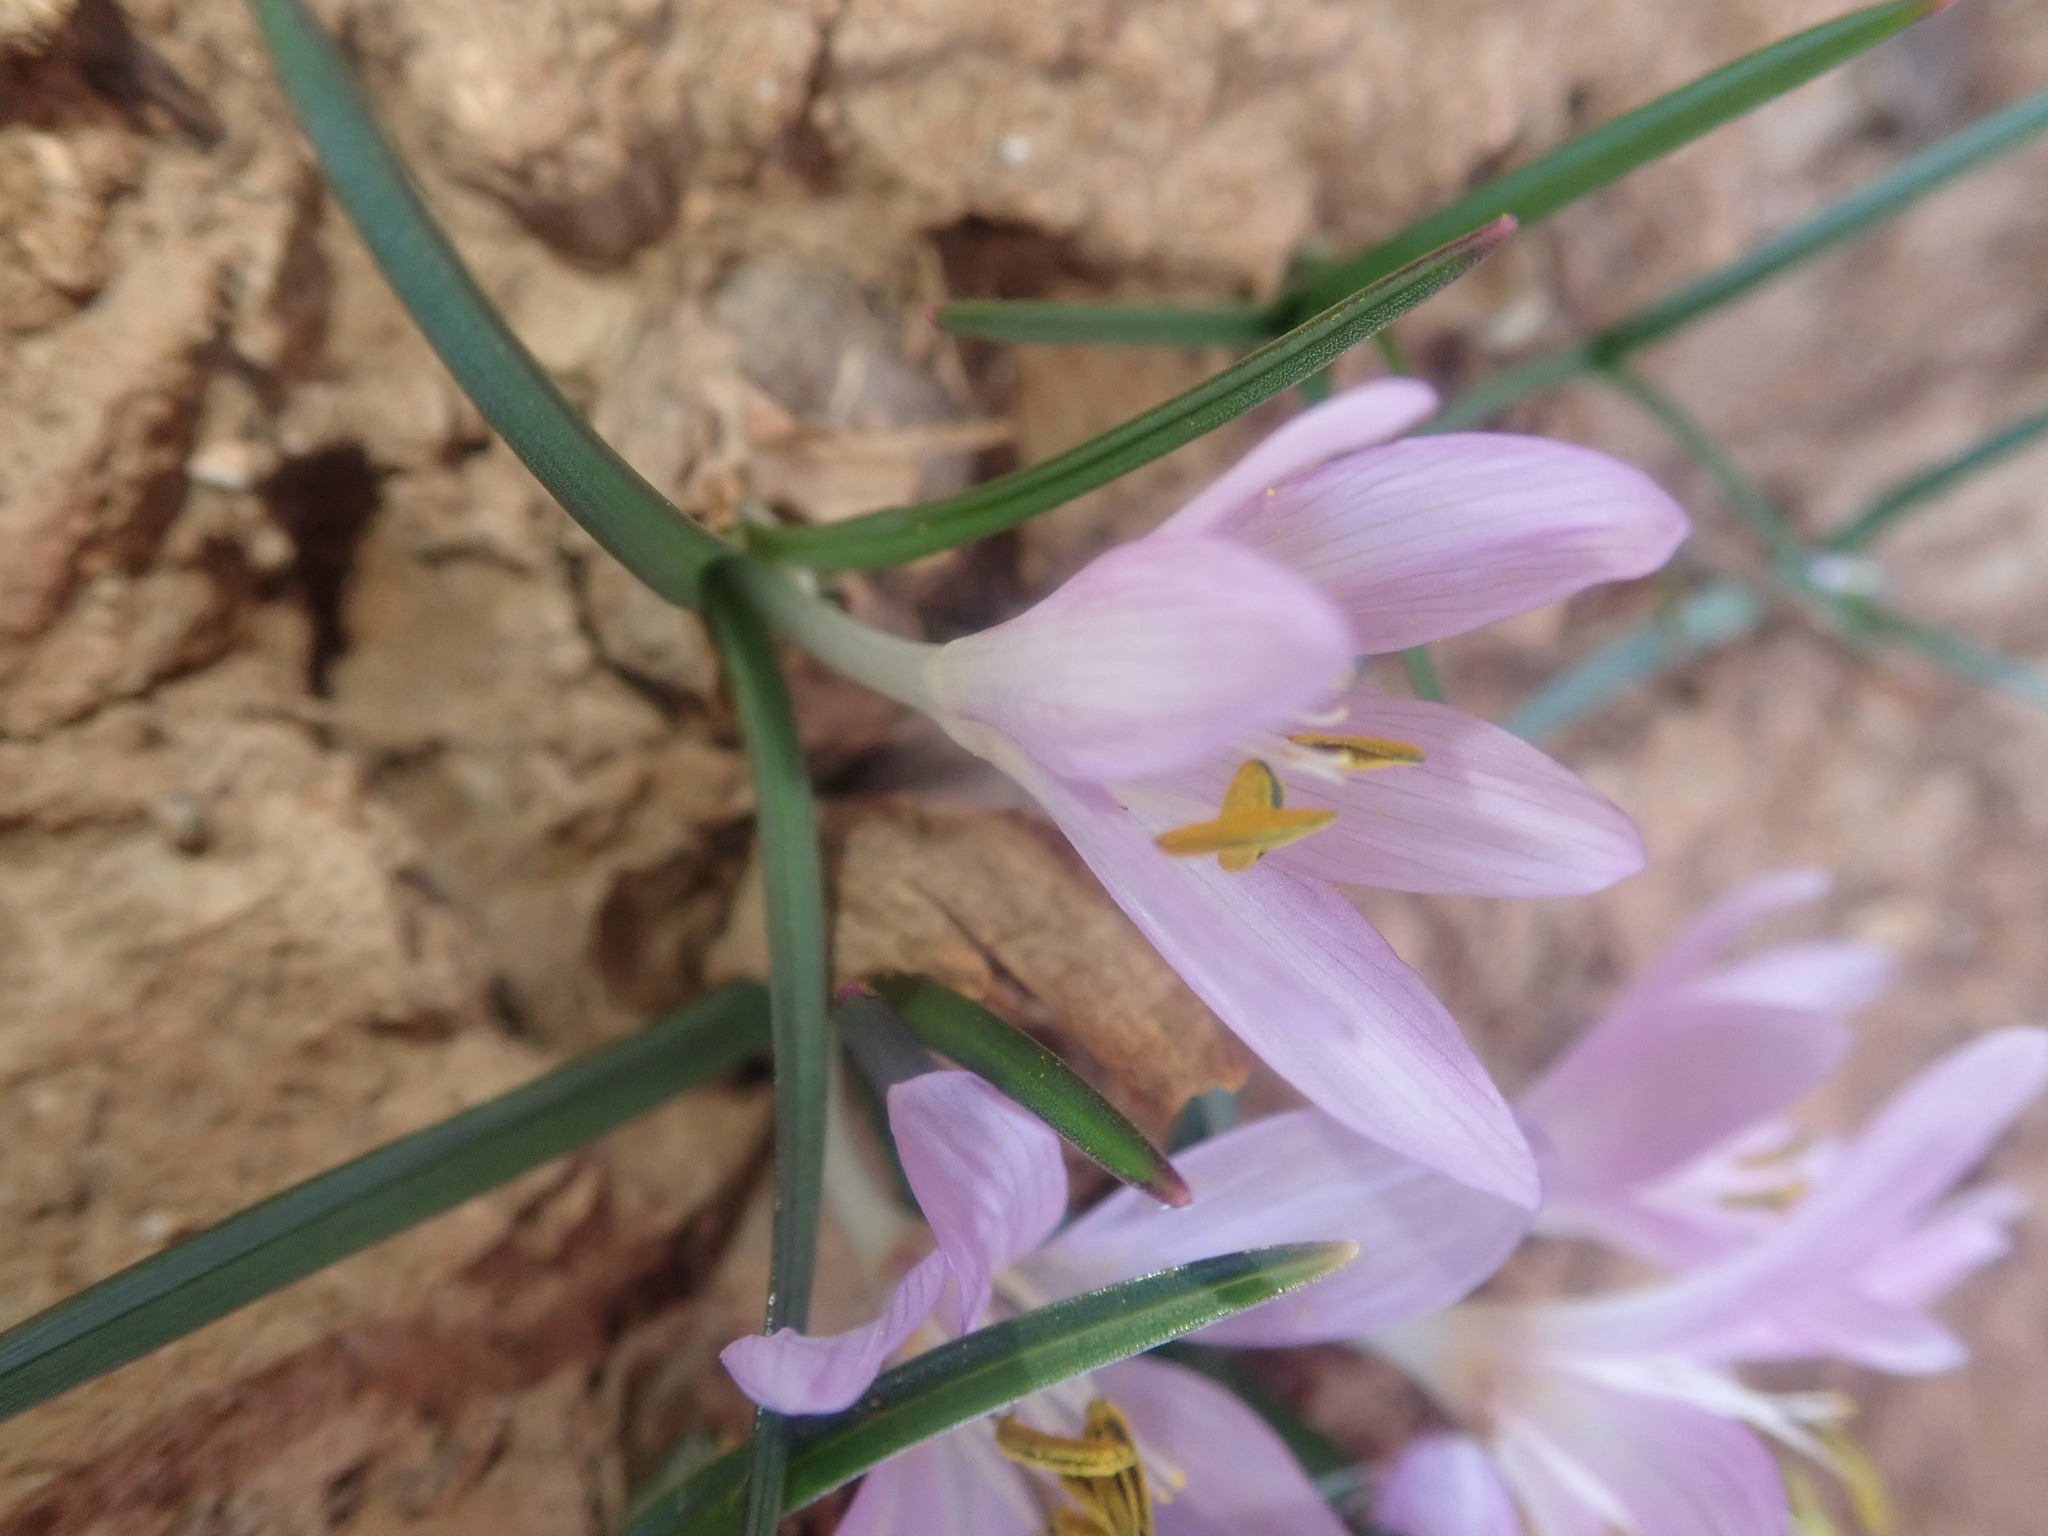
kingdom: Plantae
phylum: Tracheophyta
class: Liliopsida
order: Liliales
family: Colchicaceae
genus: Colchicum
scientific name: Colchicum stevenii
